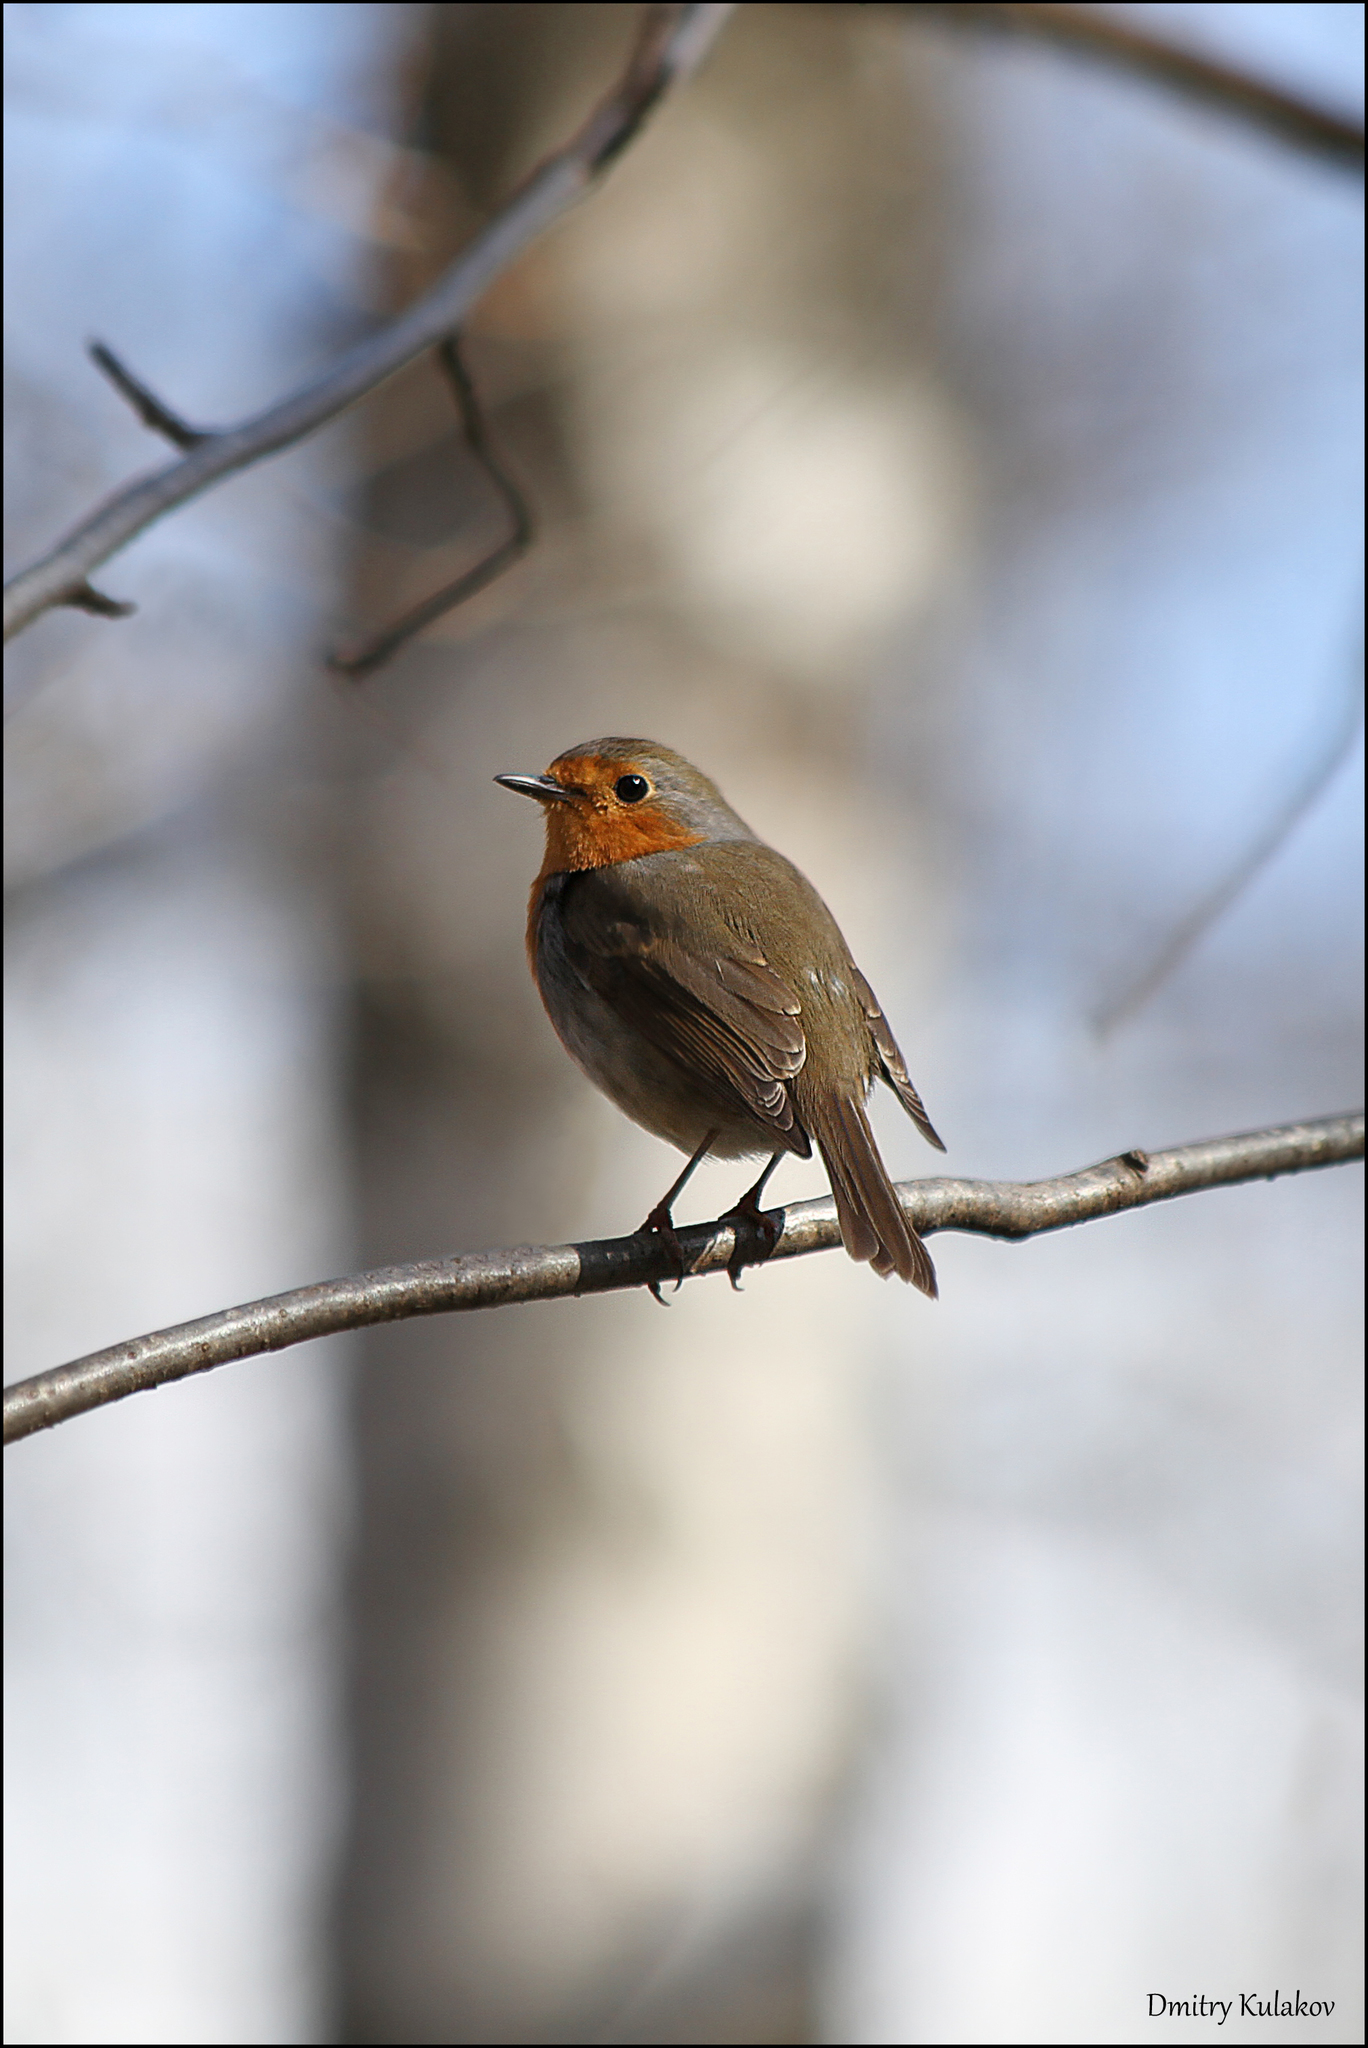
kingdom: Animalia
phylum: Chordata
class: Aves
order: Passeriformes
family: Muscicapidae
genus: Erithacus
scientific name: Erithacus rubecula
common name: European robin
